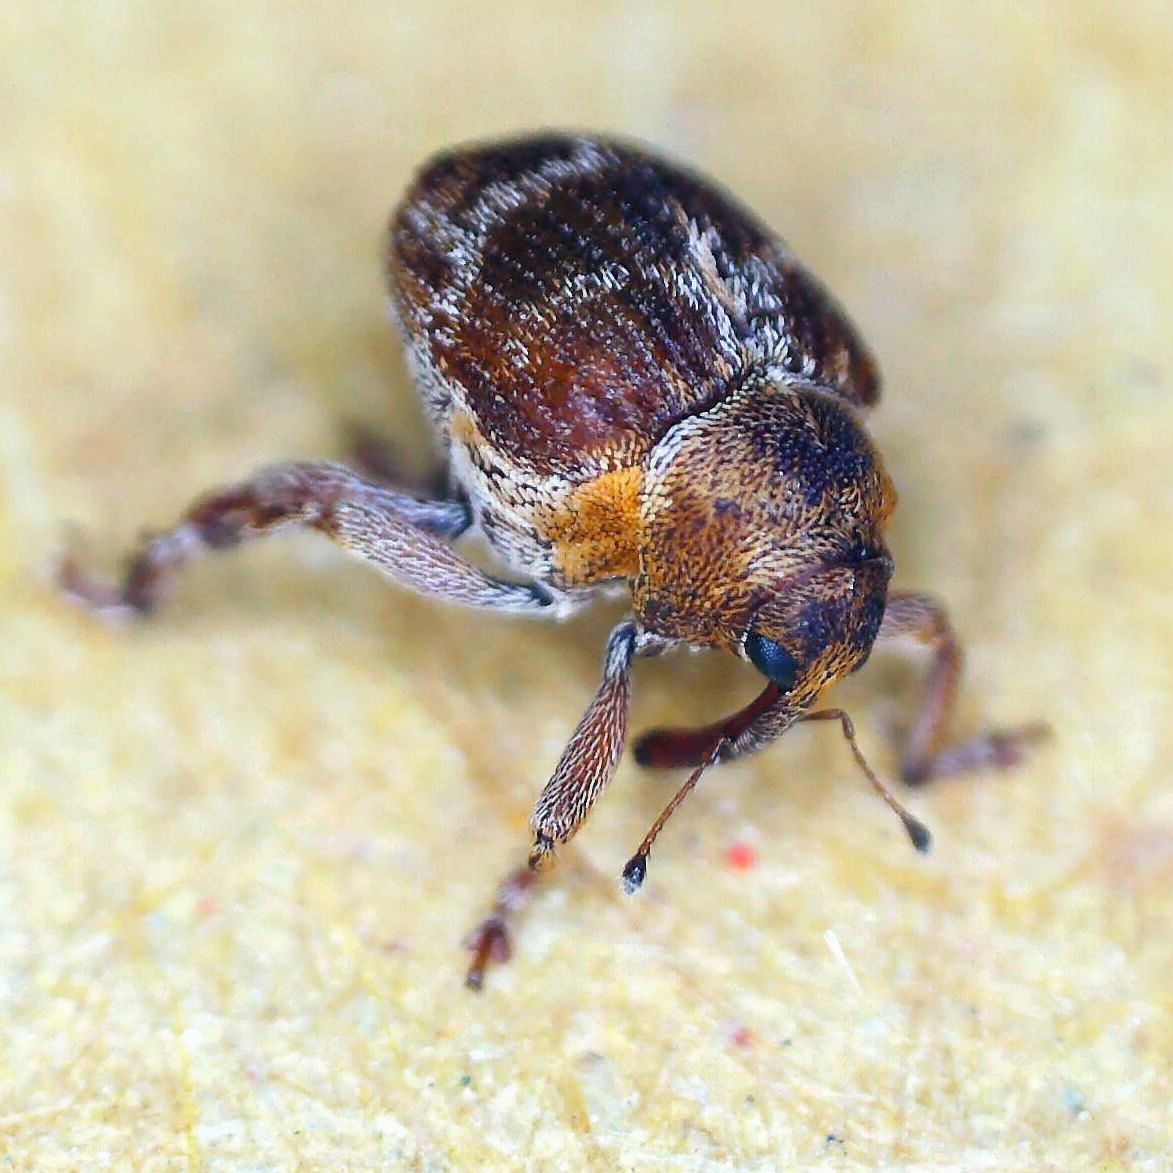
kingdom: Animalia
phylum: Arthropoda
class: Insecta
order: Coleoptera
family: Curculionidae
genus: Coeliodes
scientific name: Coeliodes transversealbofasciatus
